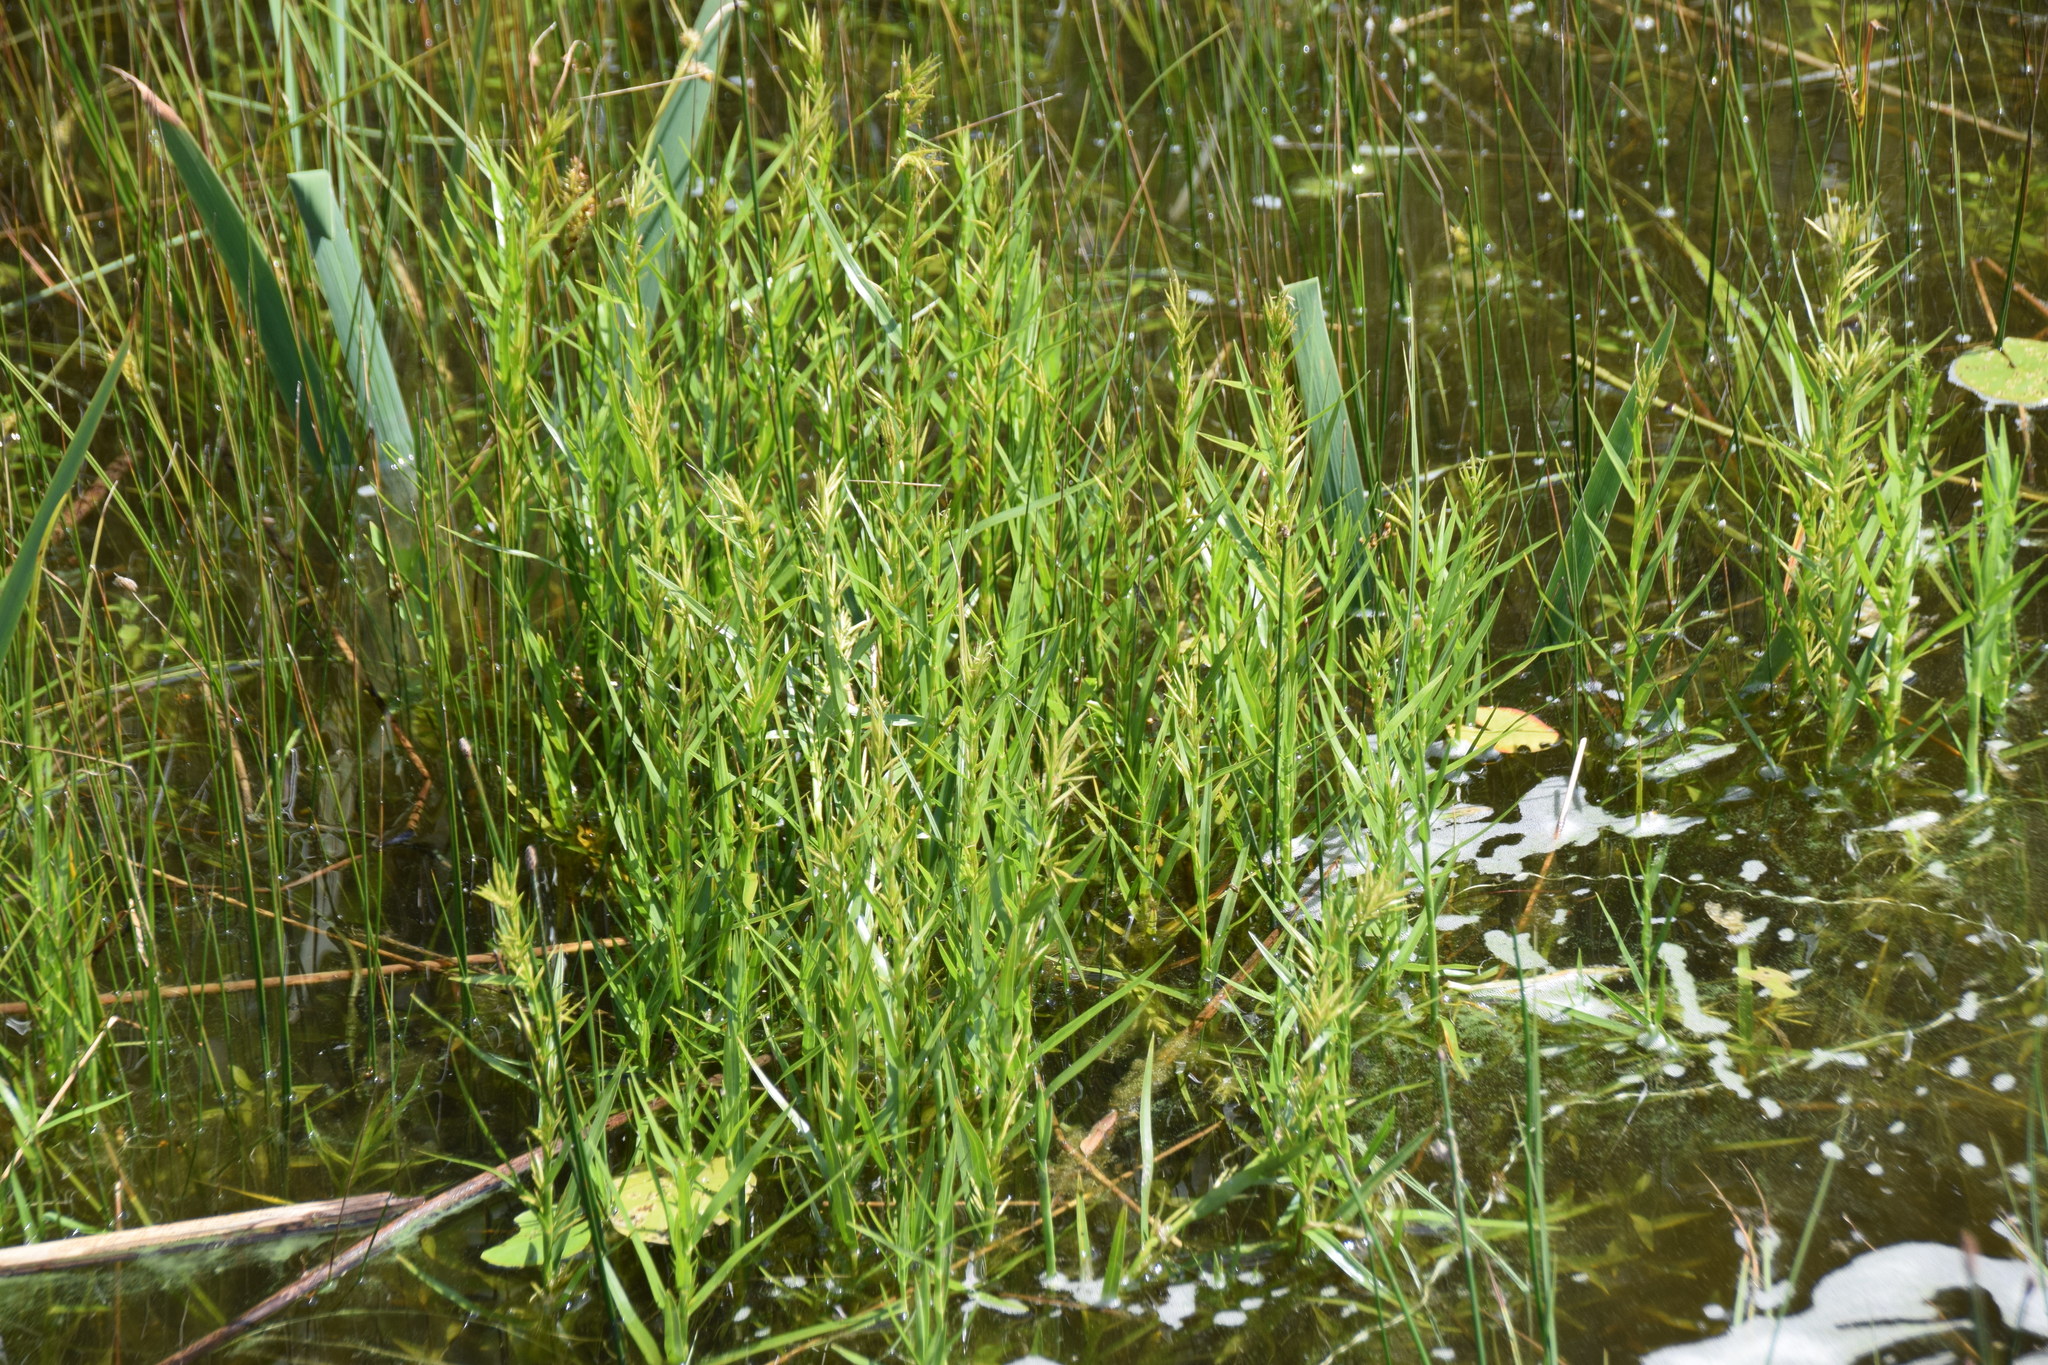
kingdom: Plantae
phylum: Tracheophyta
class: Liliopsida
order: Poales
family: Cyperaceae
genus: Dulichium
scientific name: Dulichium arundinaceum
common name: Three-way sedge
